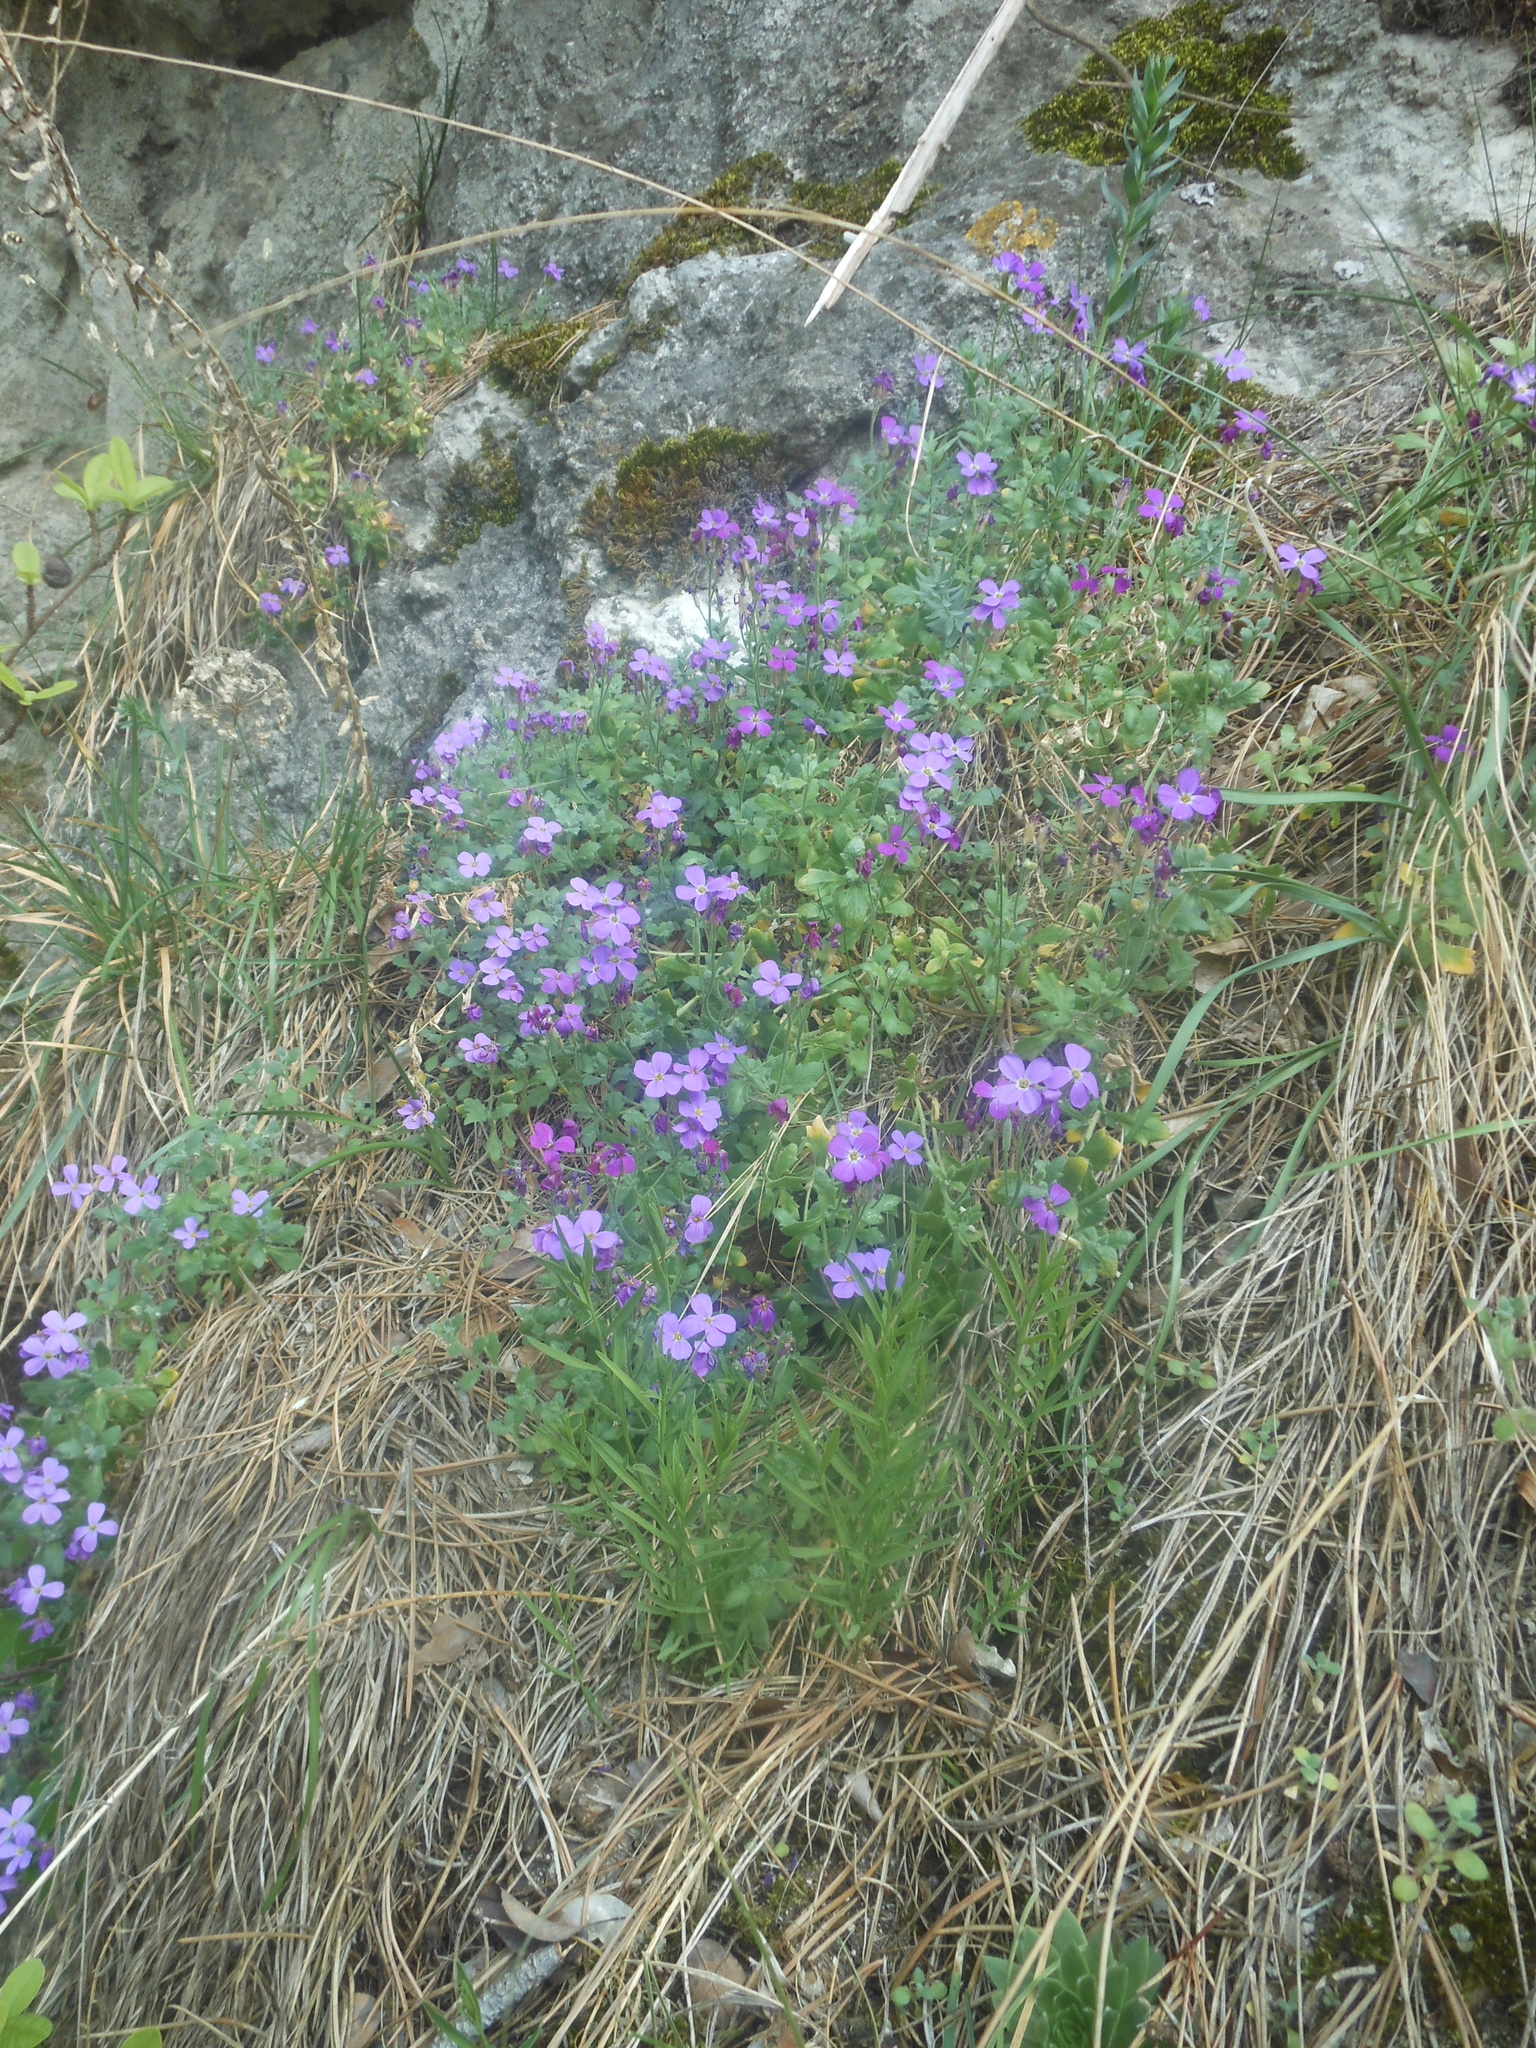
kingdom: Plantae
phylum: Tracheophyta
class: Magnoliopsida
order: Brassicales
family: Brassicaceae
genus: Aubrieta
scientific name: Aubrieta deltoidea
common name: Aubretia
